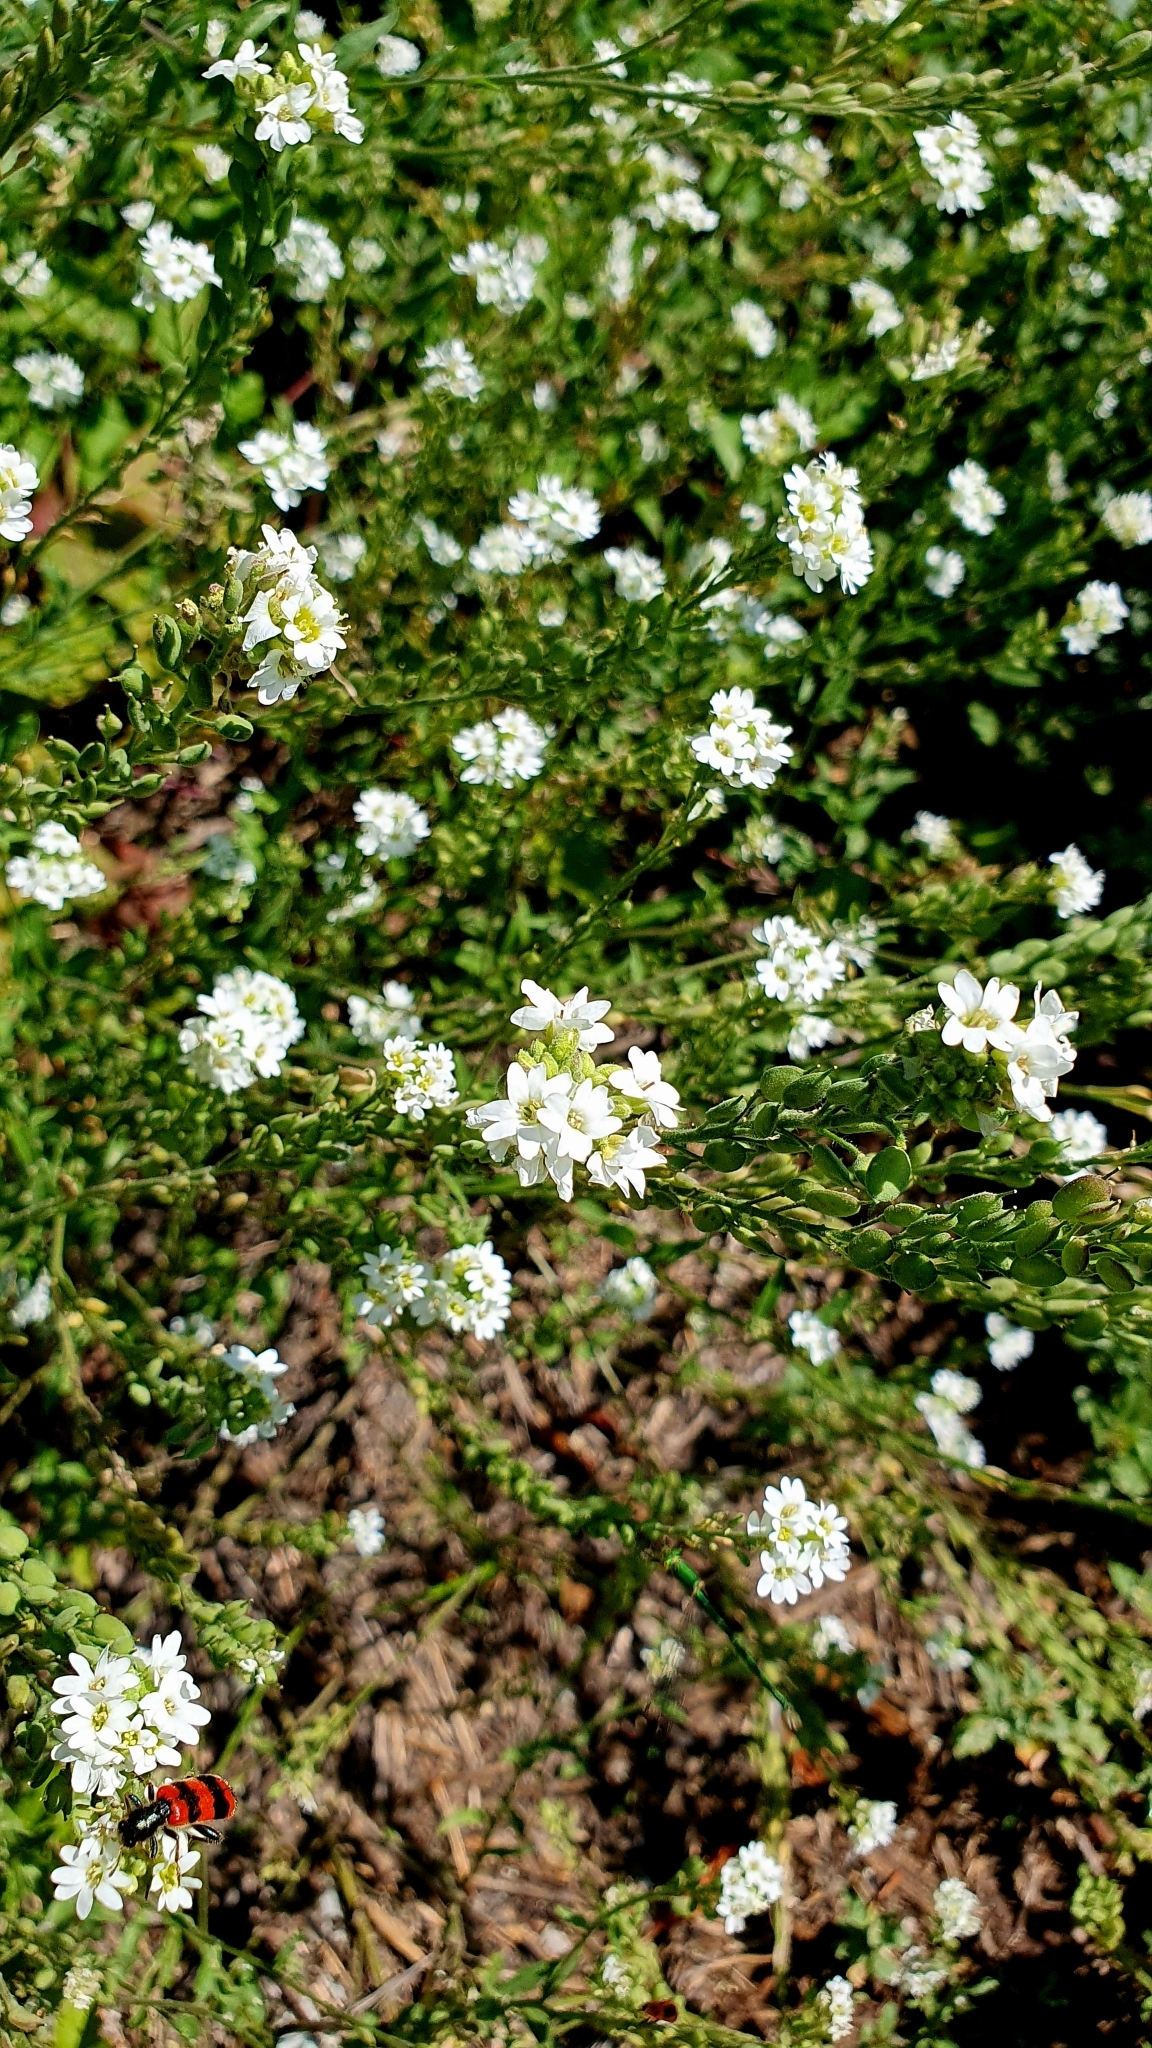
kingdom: Plantae
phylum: Tracheophyta
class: Magnoliopsida
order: Brassicales
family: Brassicaceae
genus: Berteroa
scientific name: Berteroa incana
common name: Hoary alison
